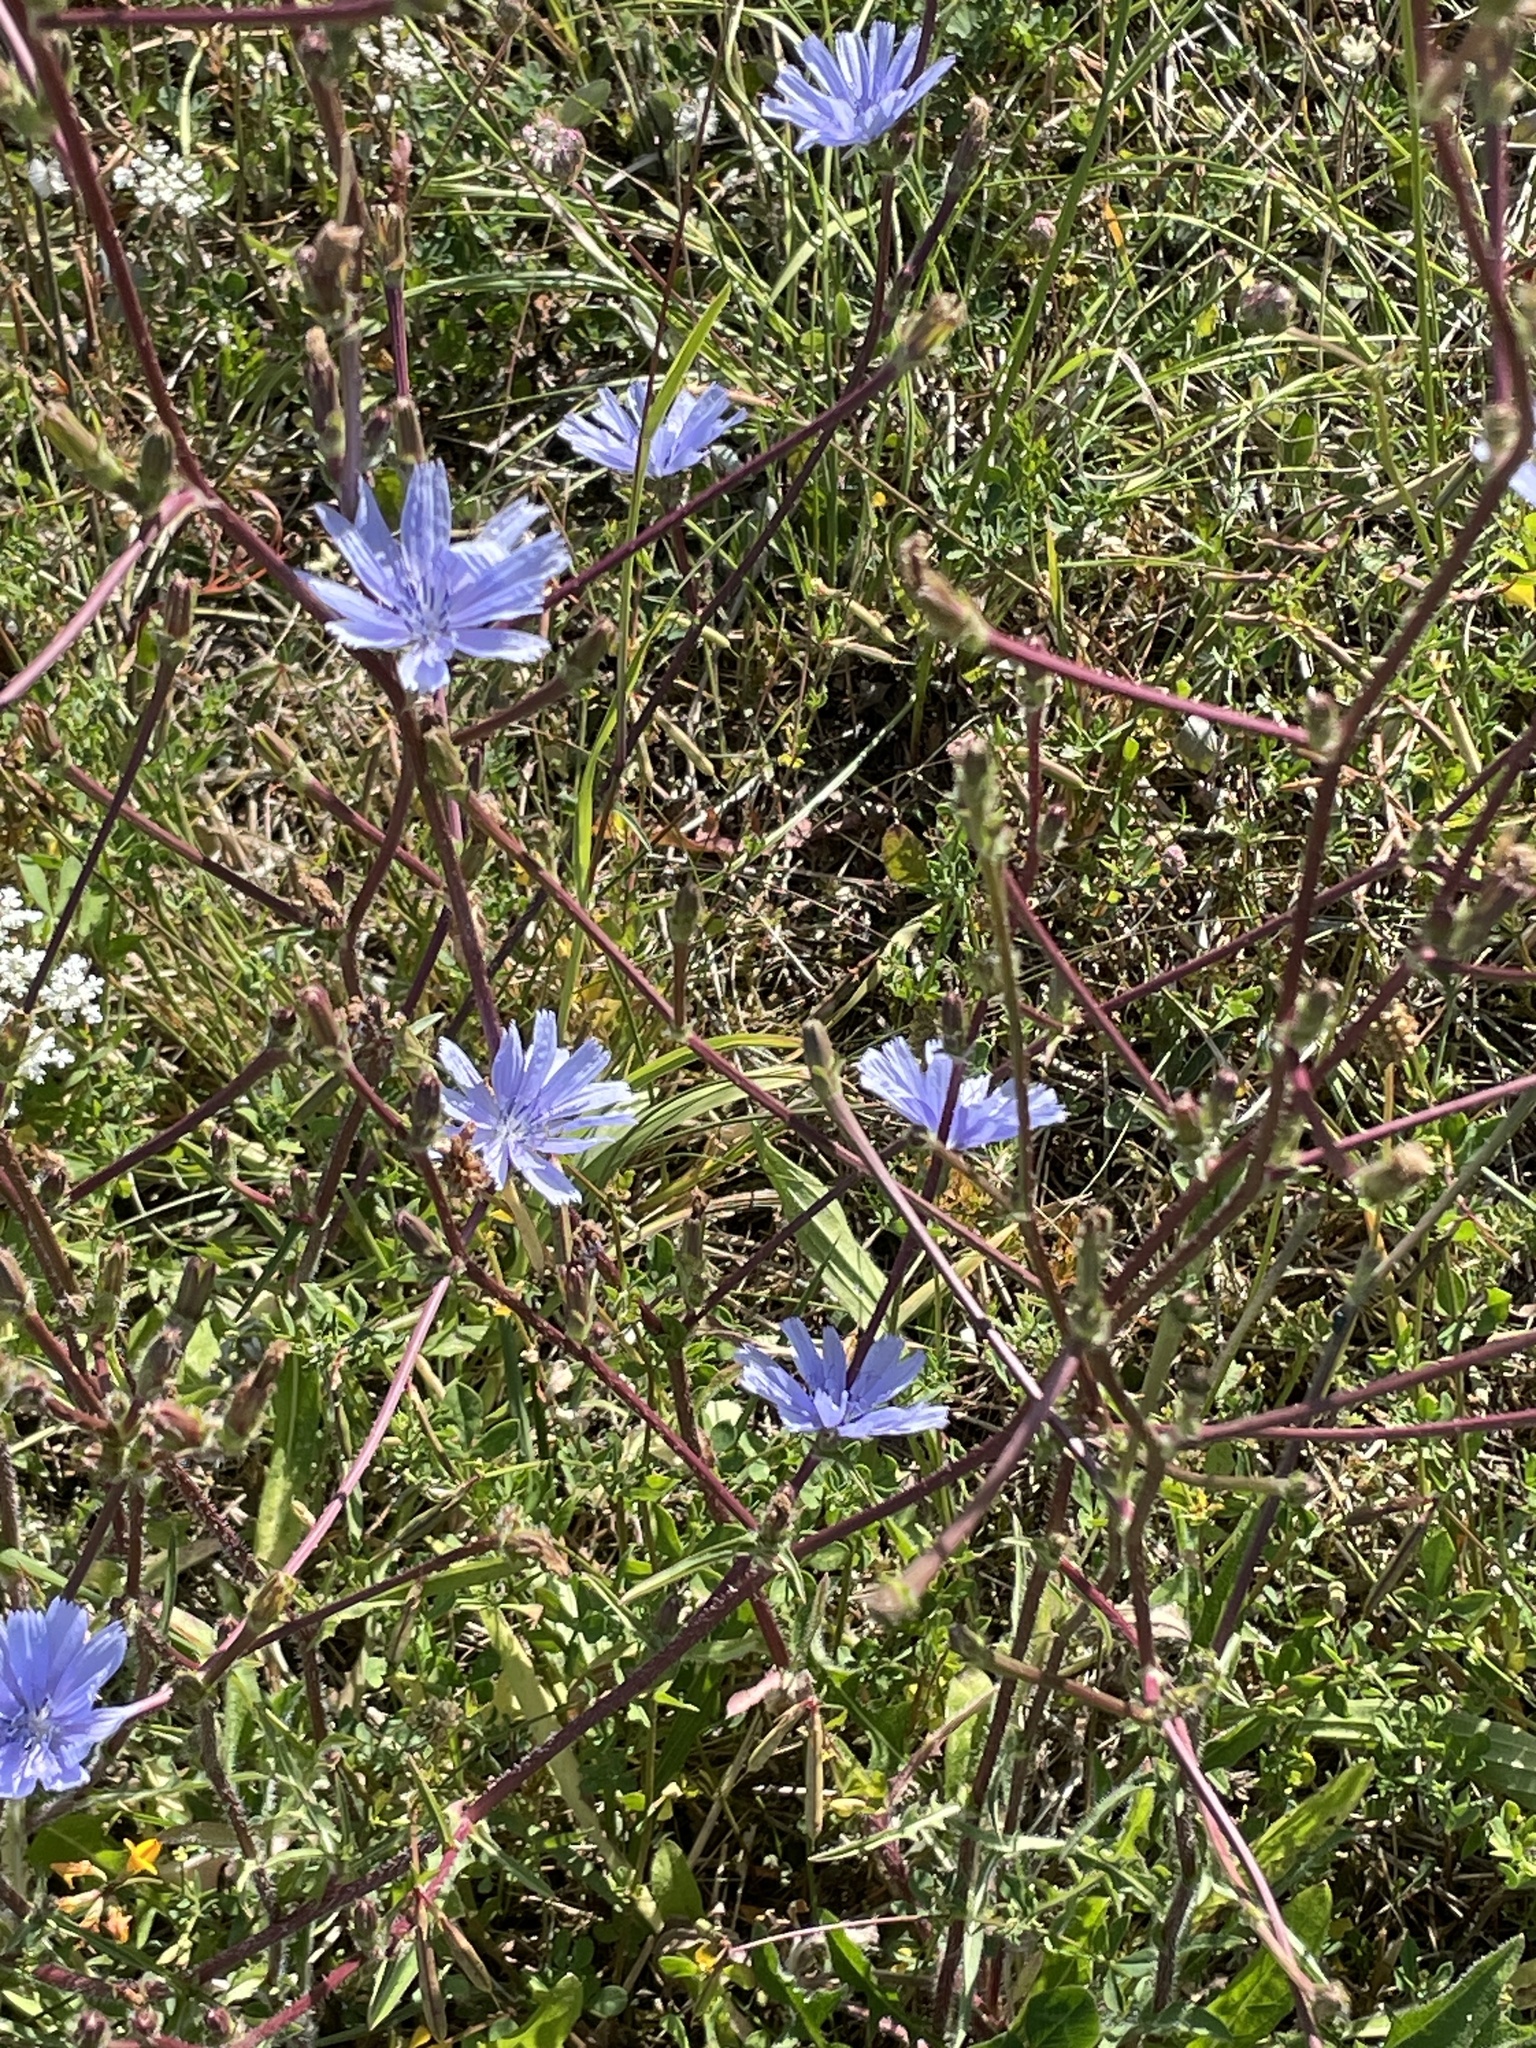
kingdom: Plantae
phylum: Tracheophyta
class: Magnoliopsida
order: Asterales
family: Asteraceae
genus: Cichorium
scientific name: Cichorium intybus
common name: Chicory
